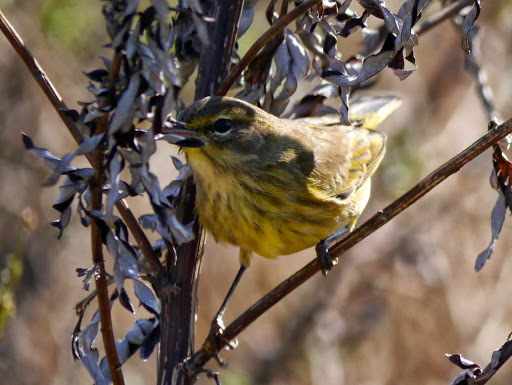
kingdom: Animalia
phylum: Chordata
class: Aves
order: Passeriformes
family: Parulidae
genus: Setophaga
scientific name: Setophaga palmarum
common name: Palm warbler
